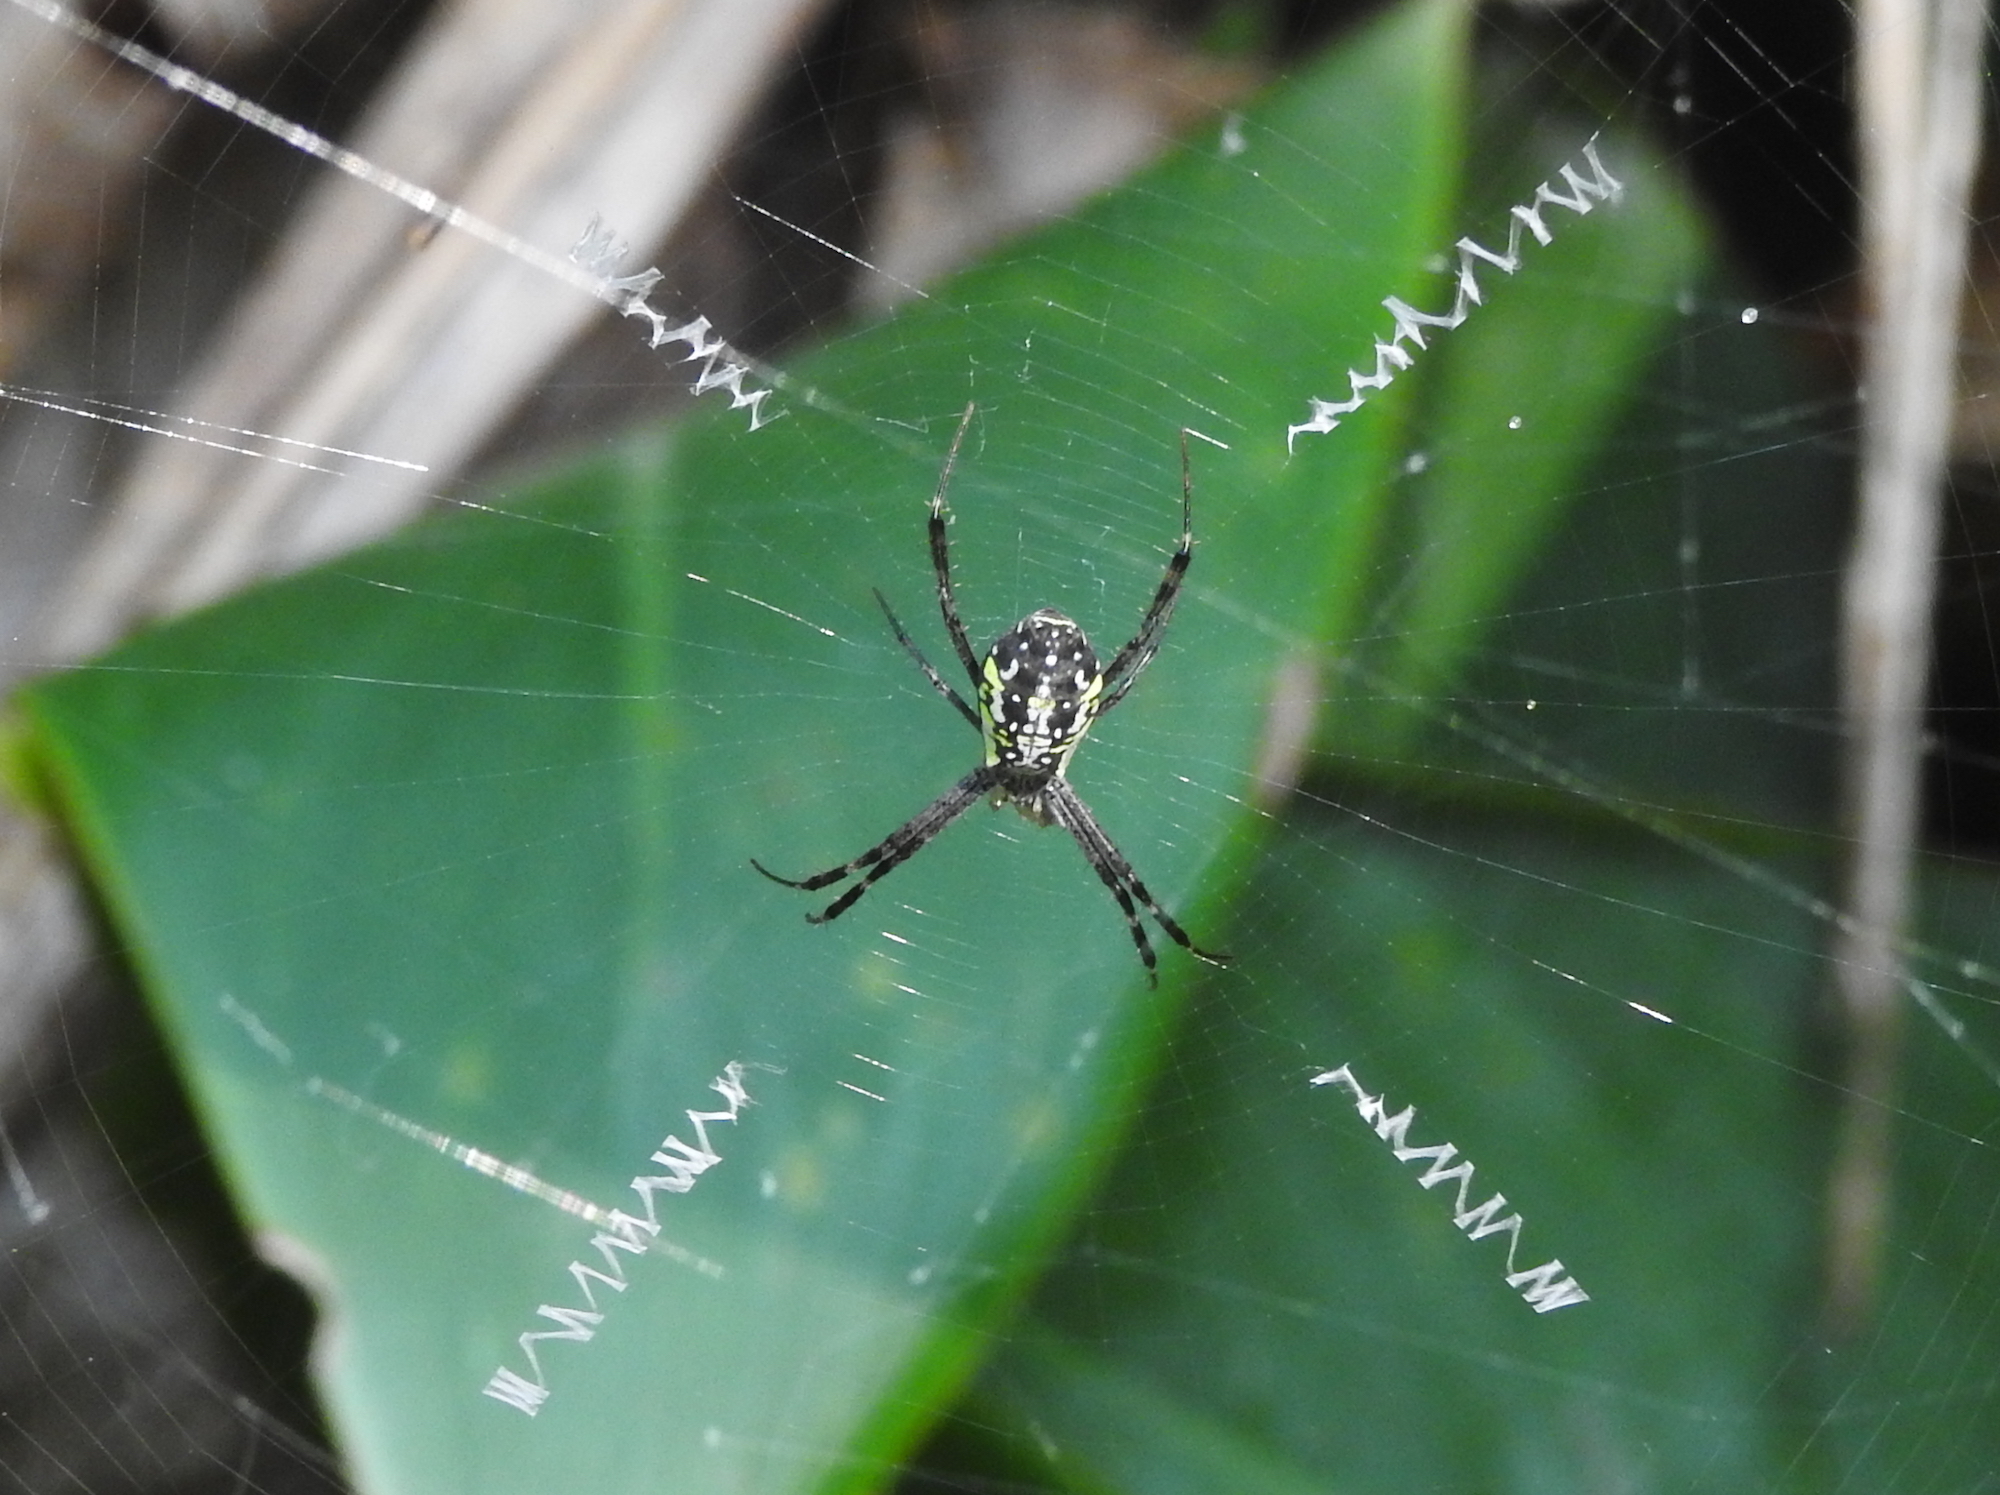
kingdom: Animalia
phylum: Arthropoda
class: Arachnida
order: Araneae
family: Araneidae
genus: Argiope
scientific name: Argiope dang
